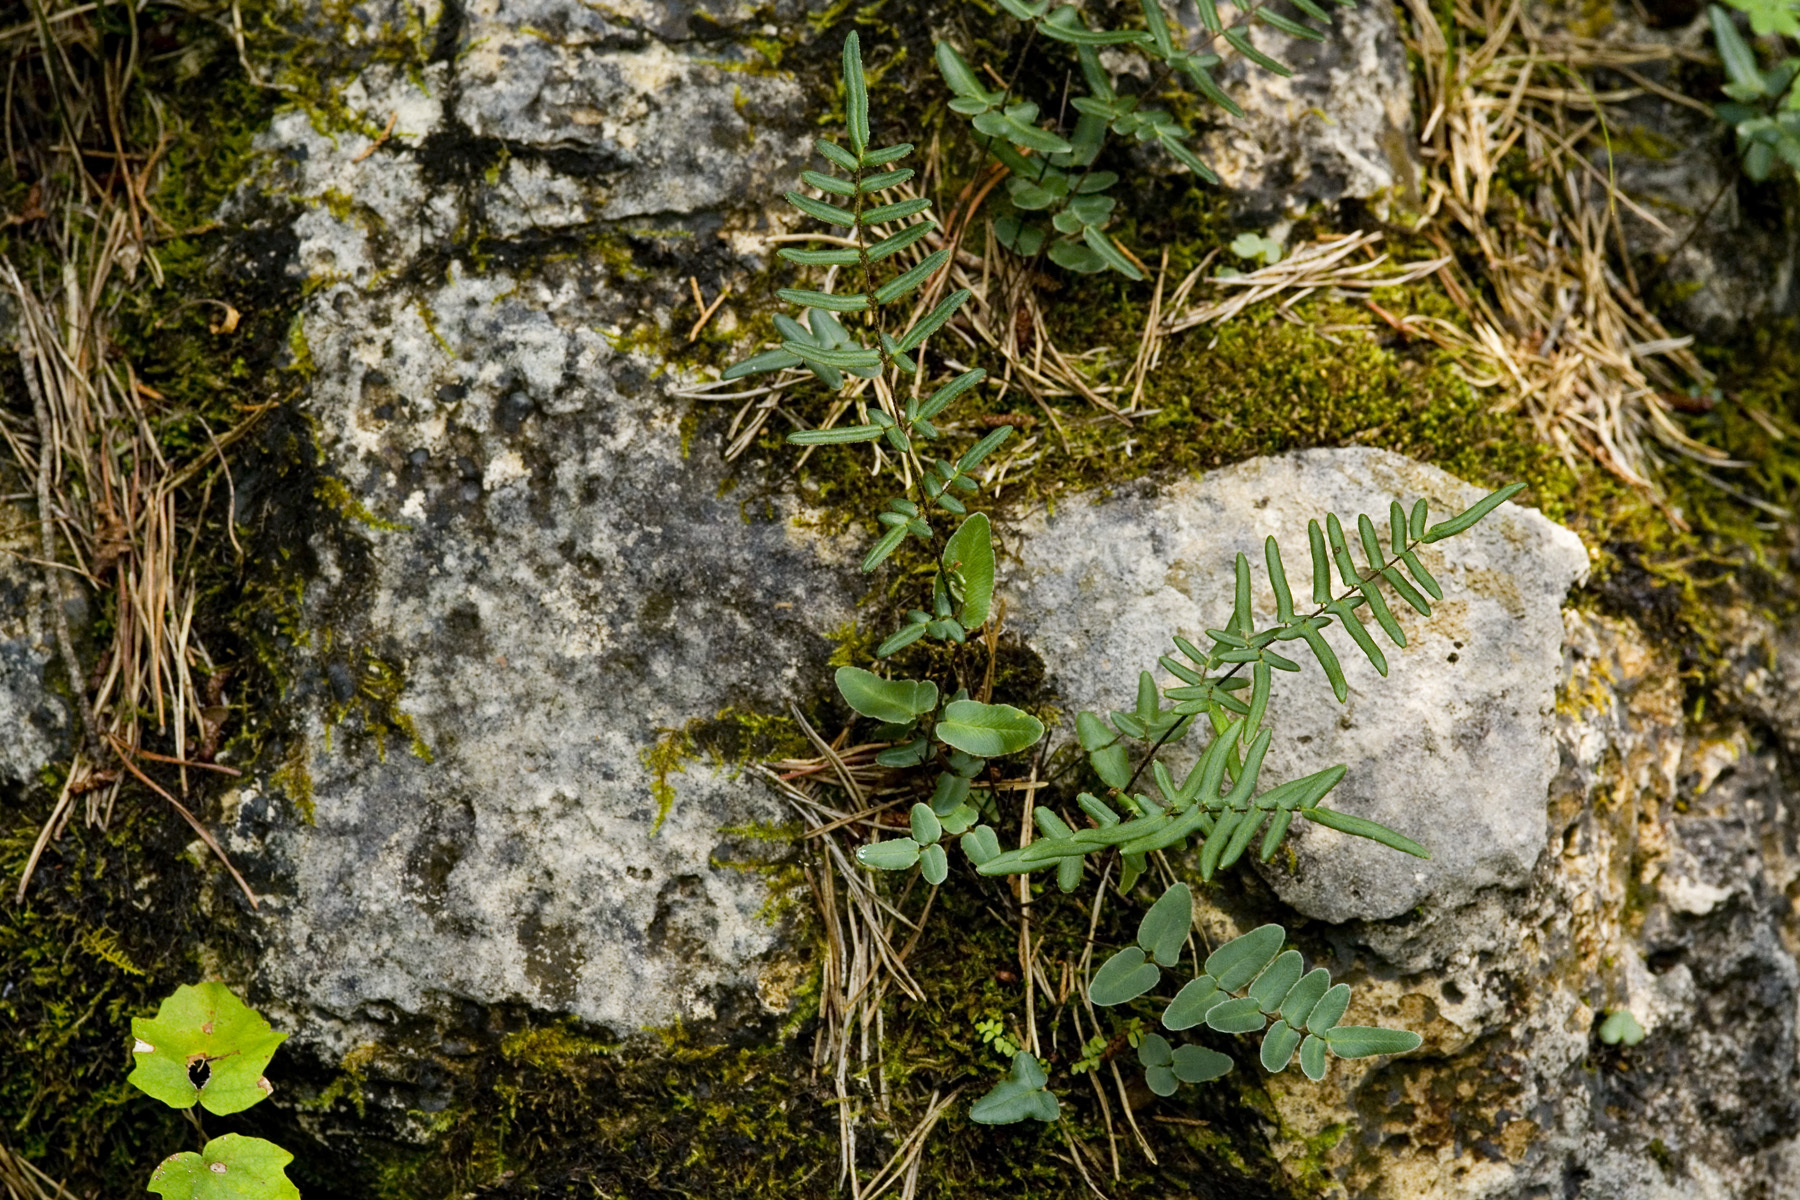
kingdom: Plantae
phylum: Tracheophyta
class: Polypodiopsida
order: Polypodiales
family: Pteridaceae
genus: Pellaea
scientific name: Pellaea atropurpurea
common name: Hairy cliffbrake
